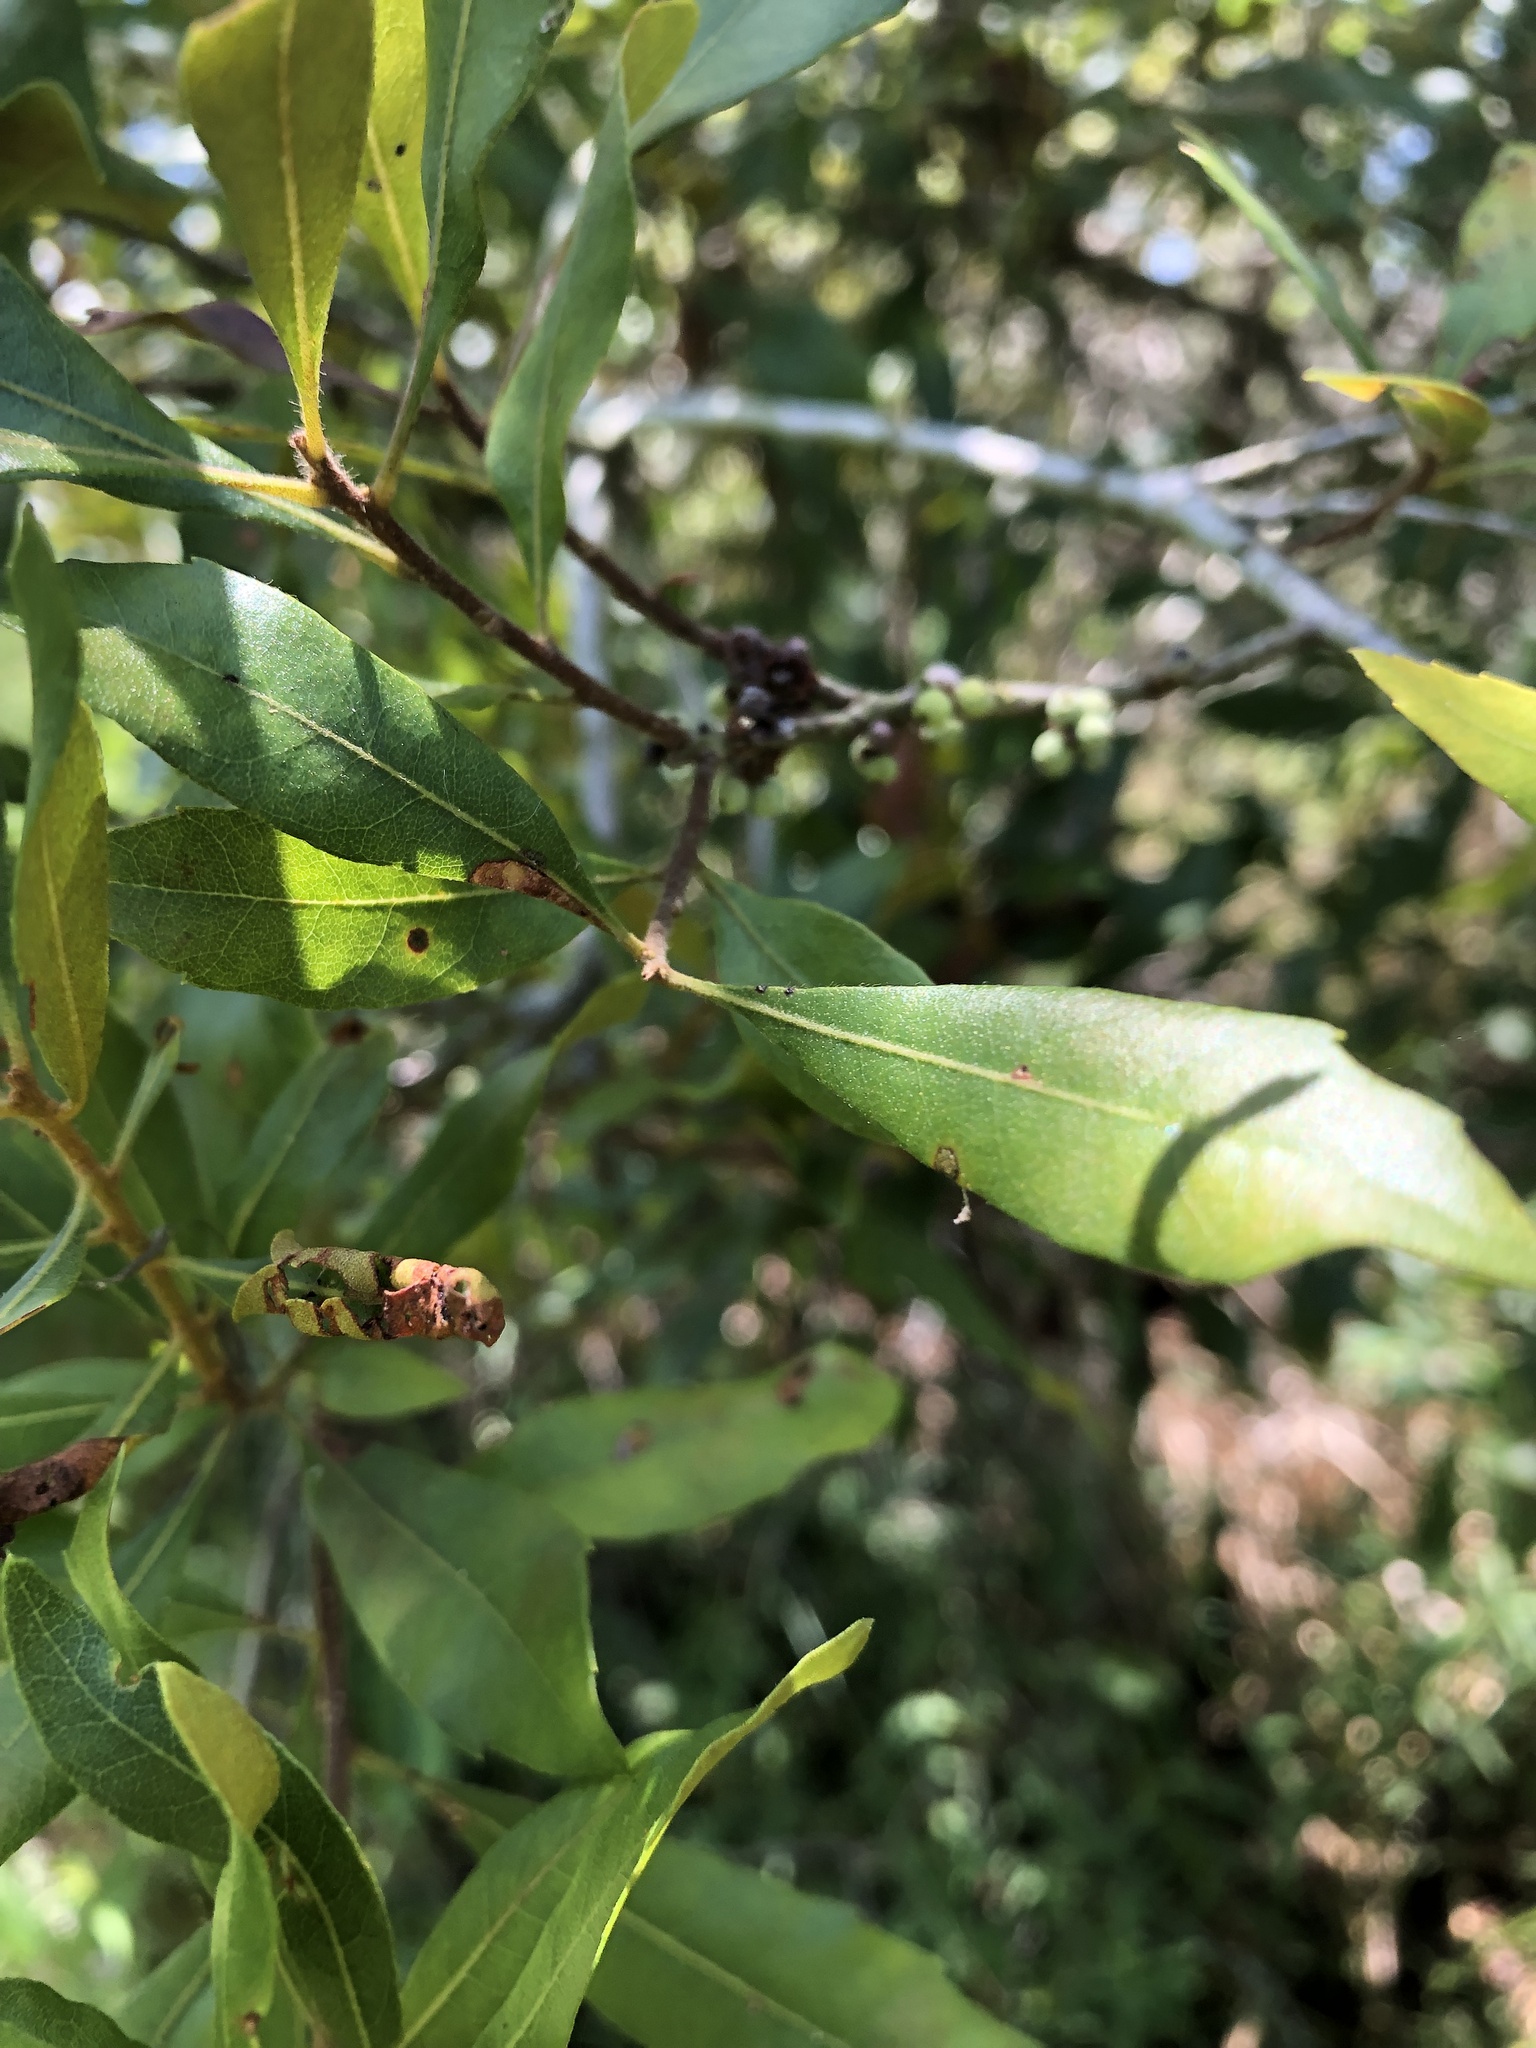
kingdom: Plantae
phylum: Tracheophyta
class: Magnoliopsida
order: Fagales
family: Myricaceae
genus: Morella
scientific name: Morella cerifera
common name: Wax myrtle
